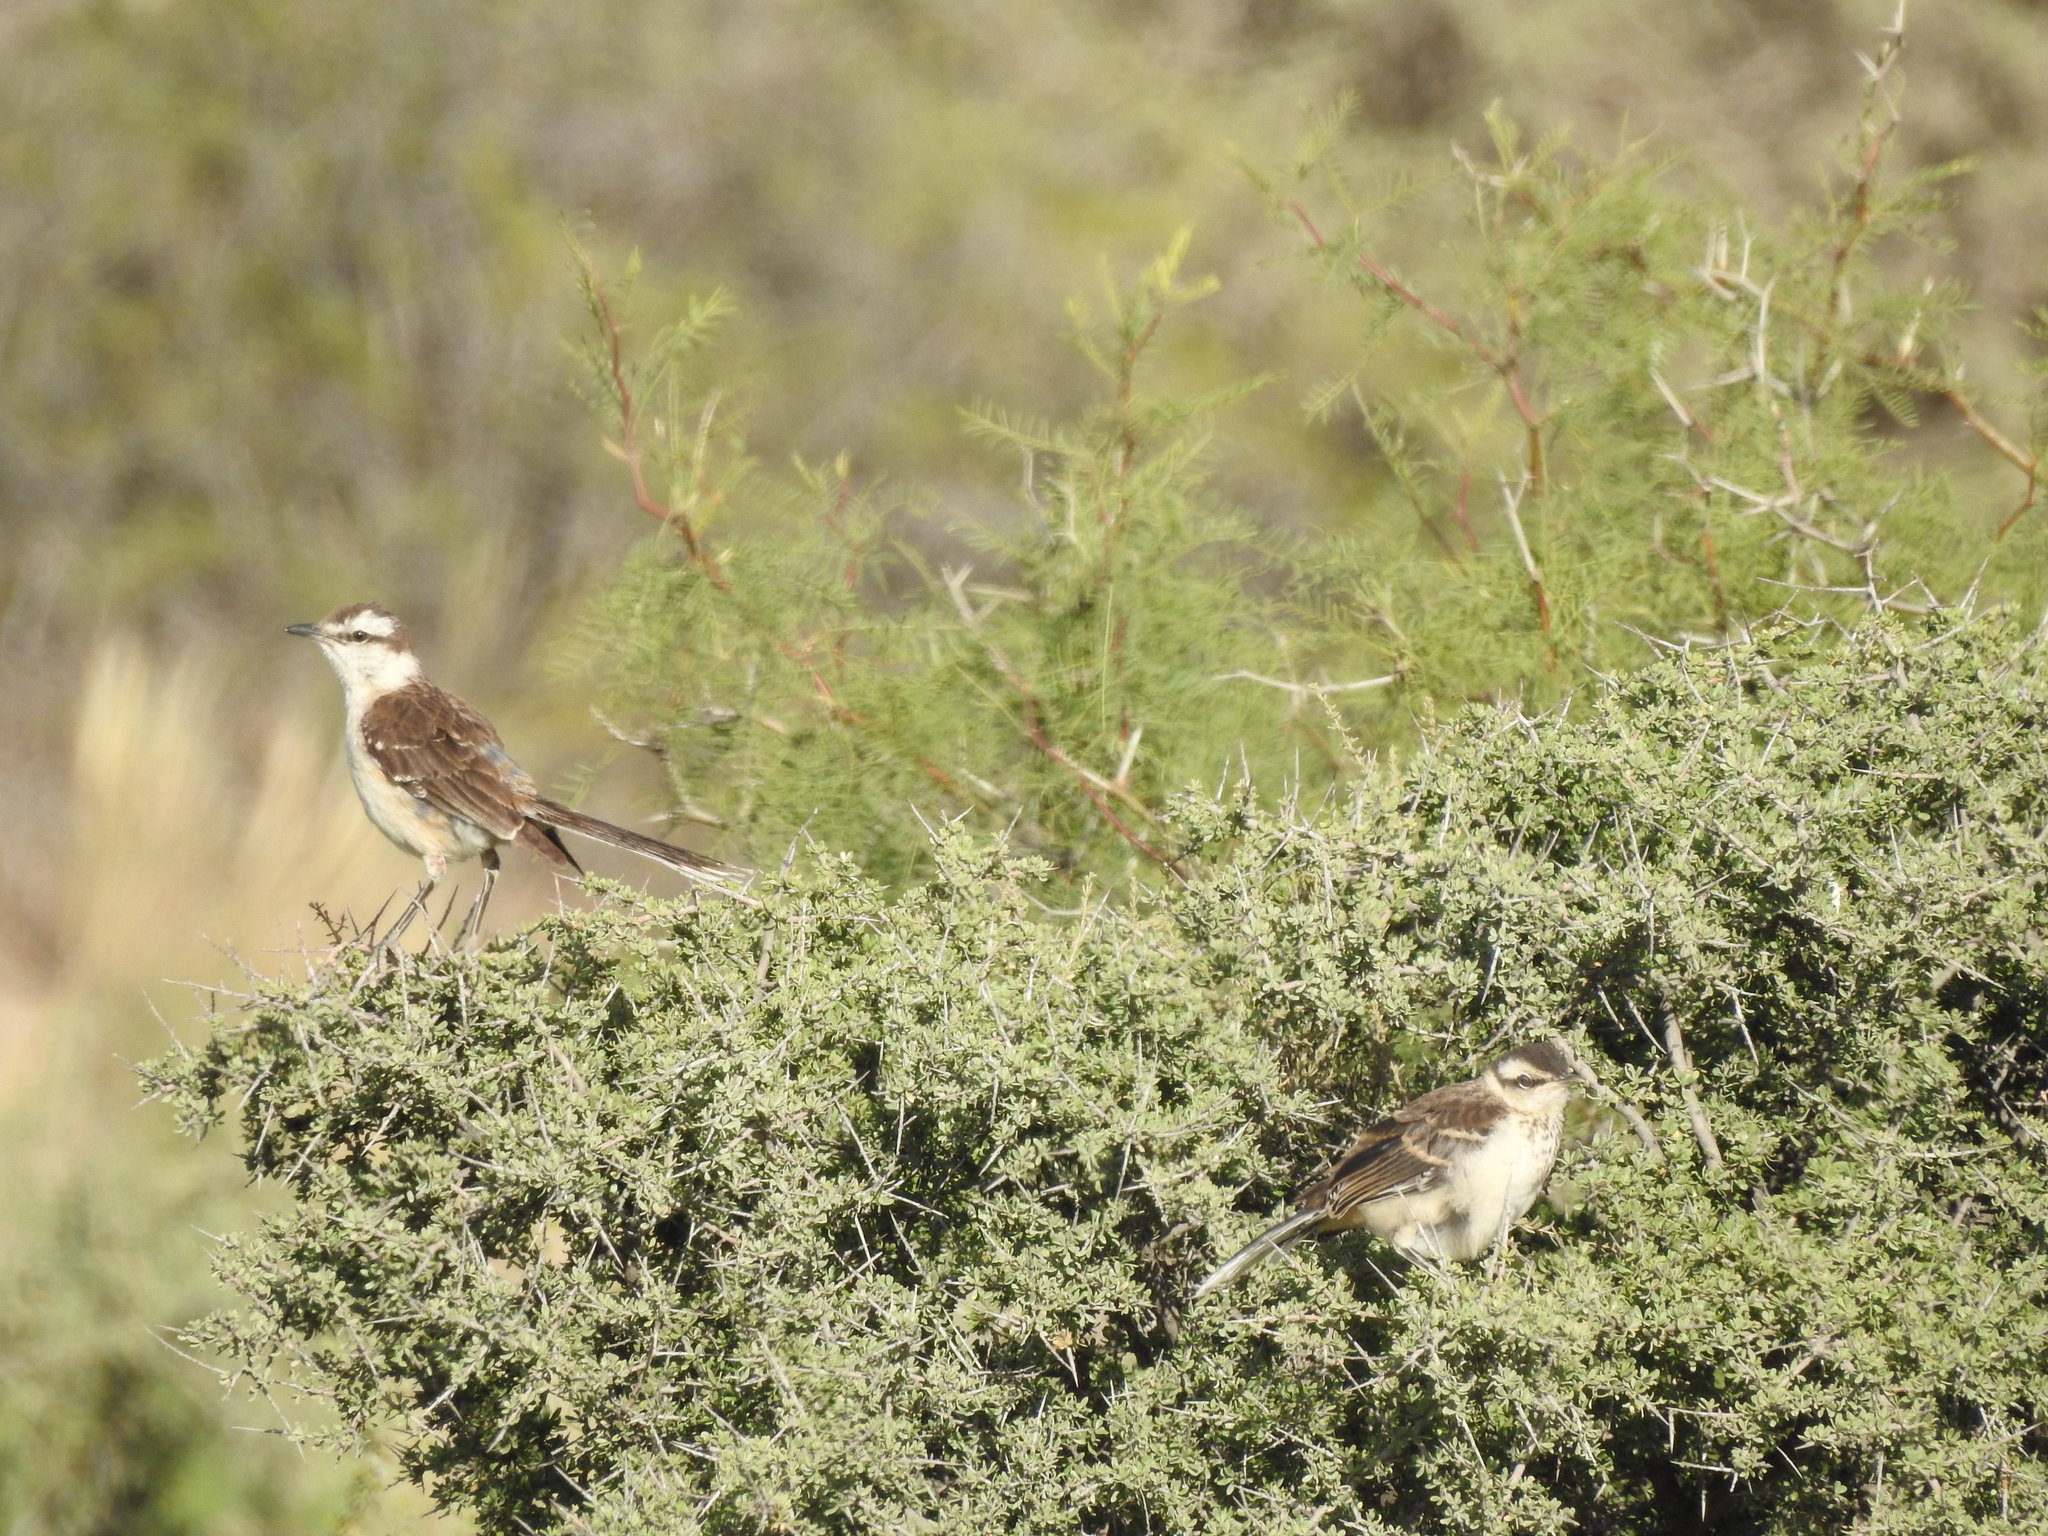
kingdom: Animalia
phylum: Chordata
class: Aves
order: Passeriformes
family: Mimidae
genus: Mimus
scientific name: Mimus saturninus
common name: Chalk-browed mockingbird
